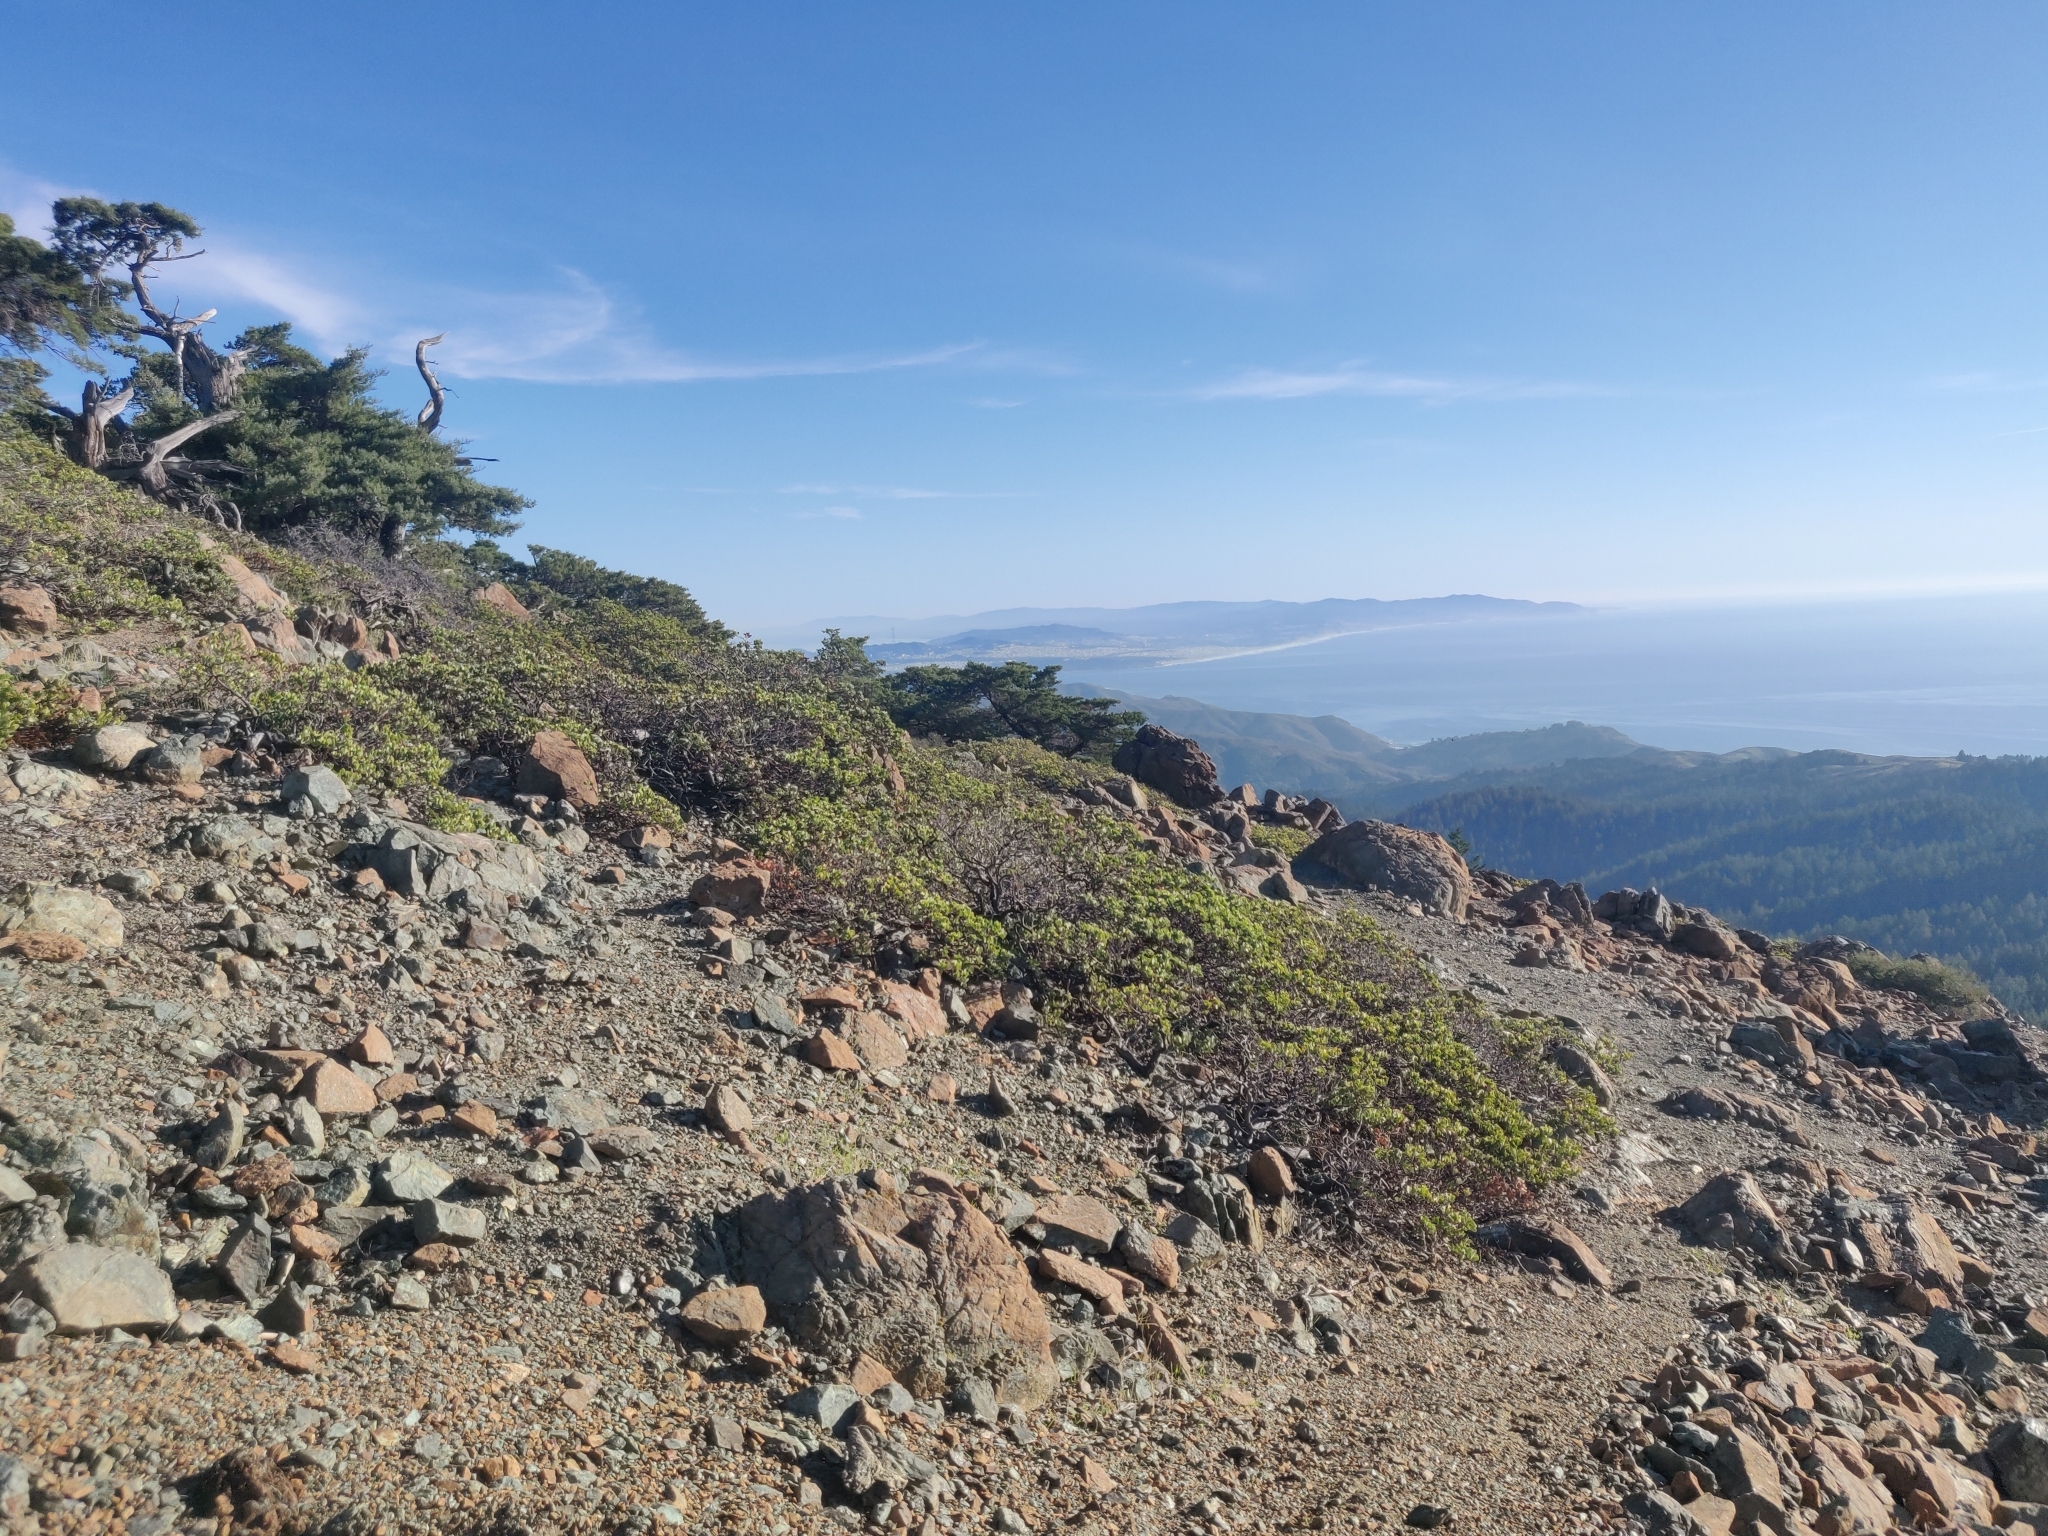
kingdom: Plantae
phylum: Tracheophyta
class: Magnoliopsida
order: Ericales
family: Ericaceae
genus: Arctostaphylos
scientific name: Arctostaphylos montana
